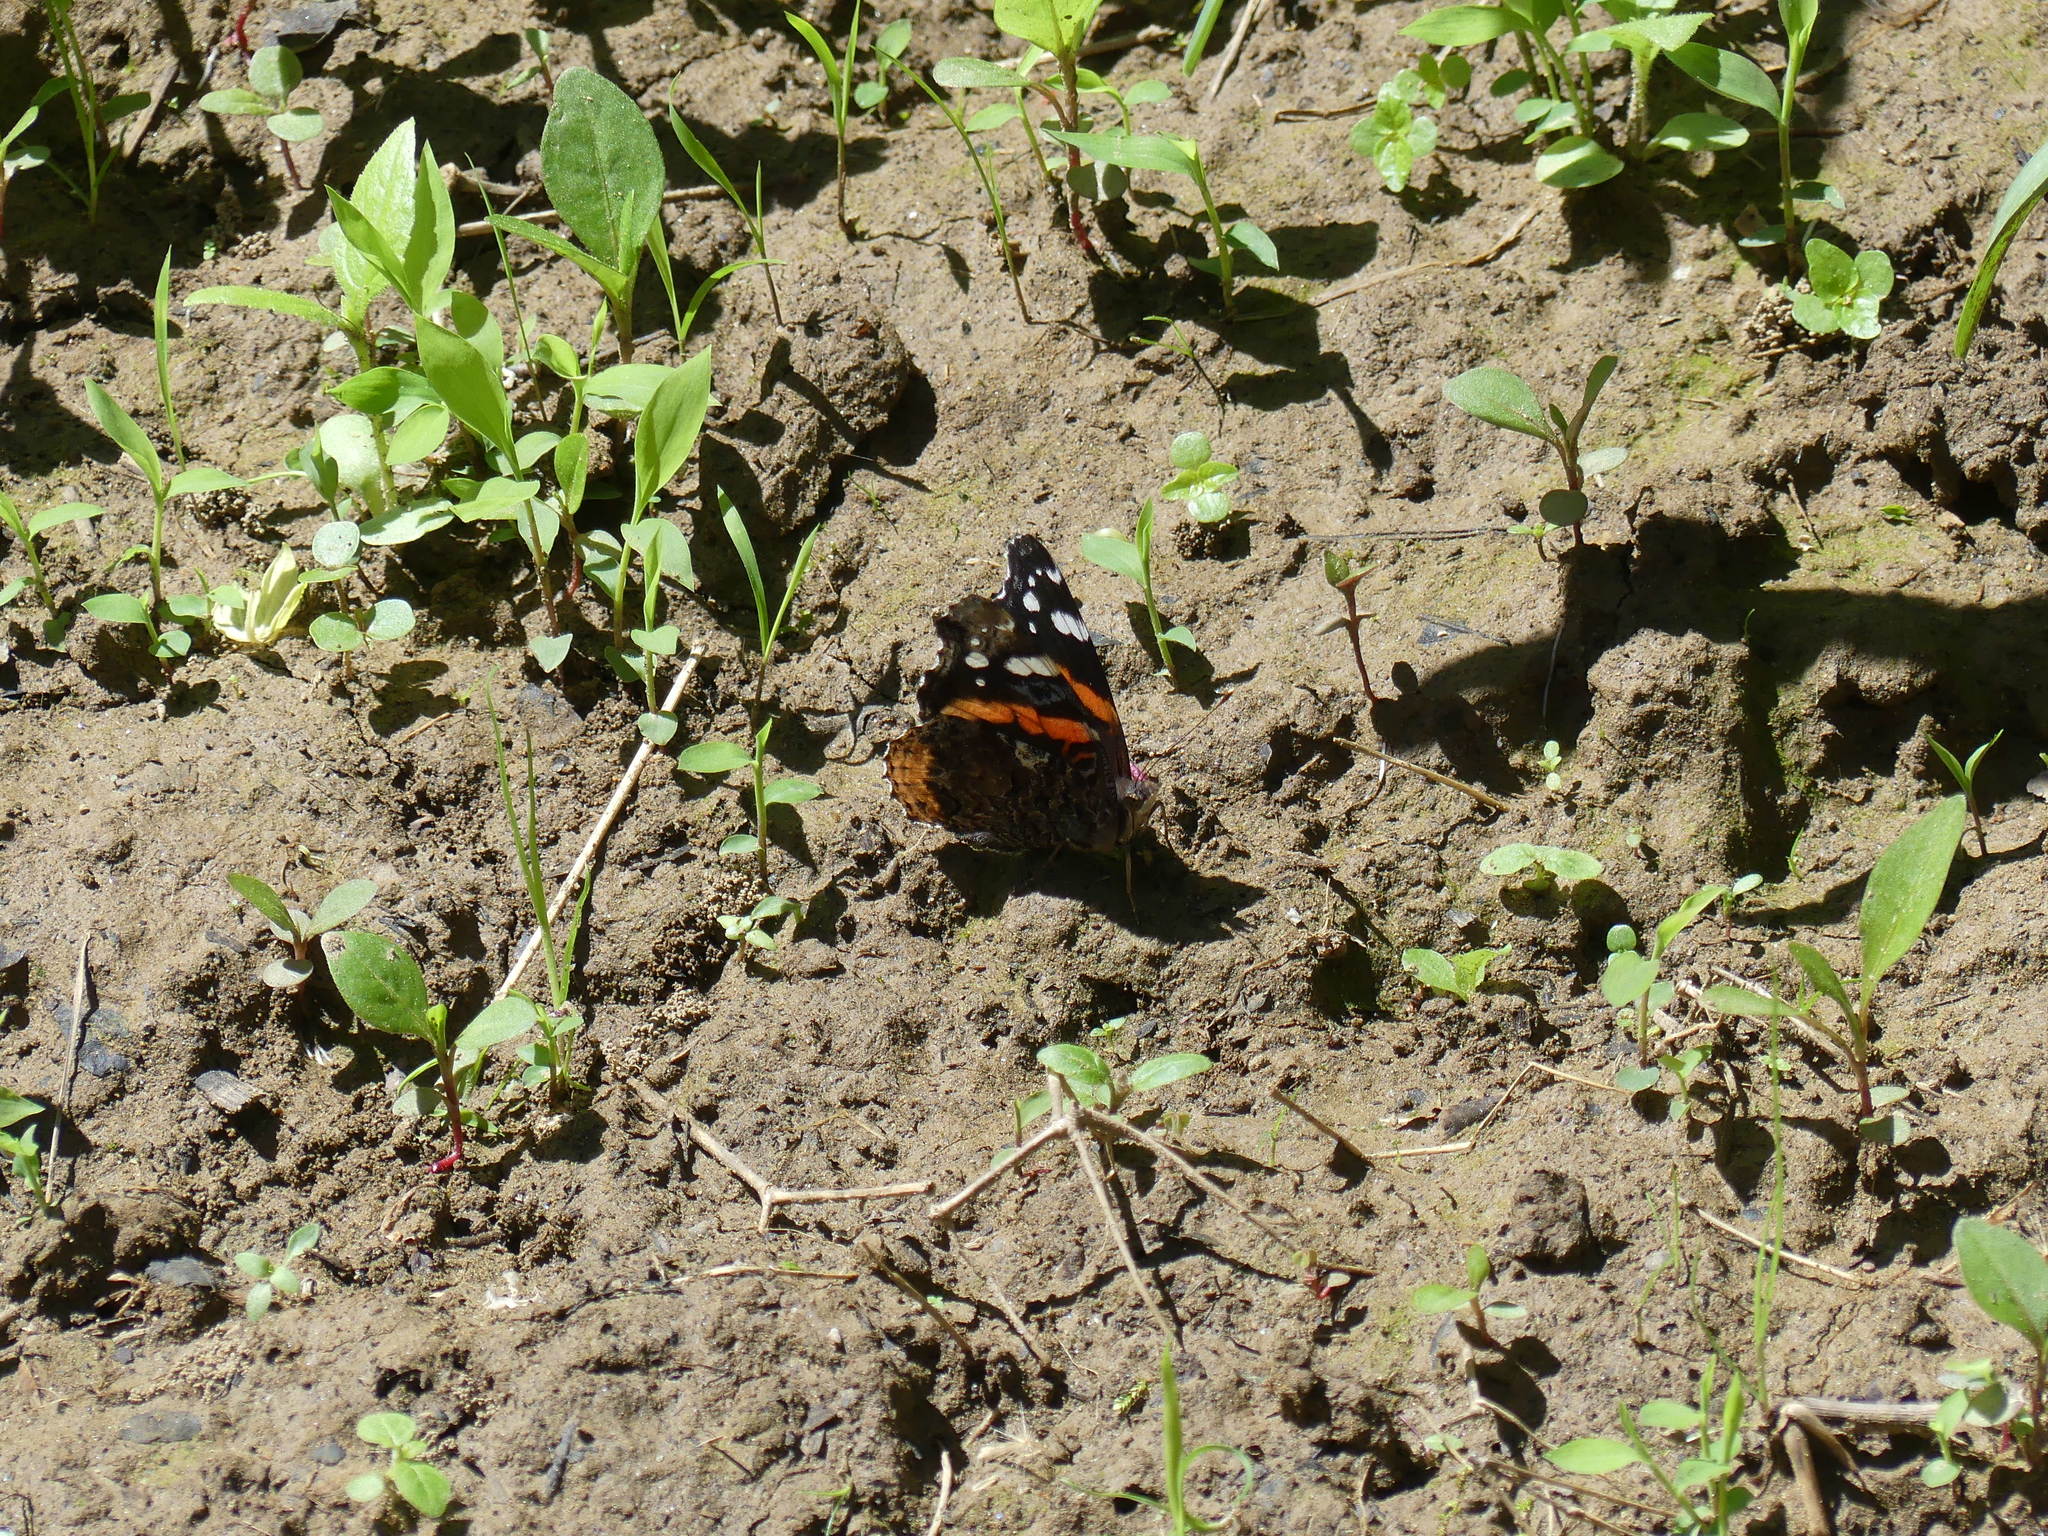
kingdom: Animalia
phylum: Arthropoda
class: Insecta
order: Lepidoptera
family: Nymphalidae
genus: Vanessa
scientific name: Vanessa atalanta
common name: Red admiral
